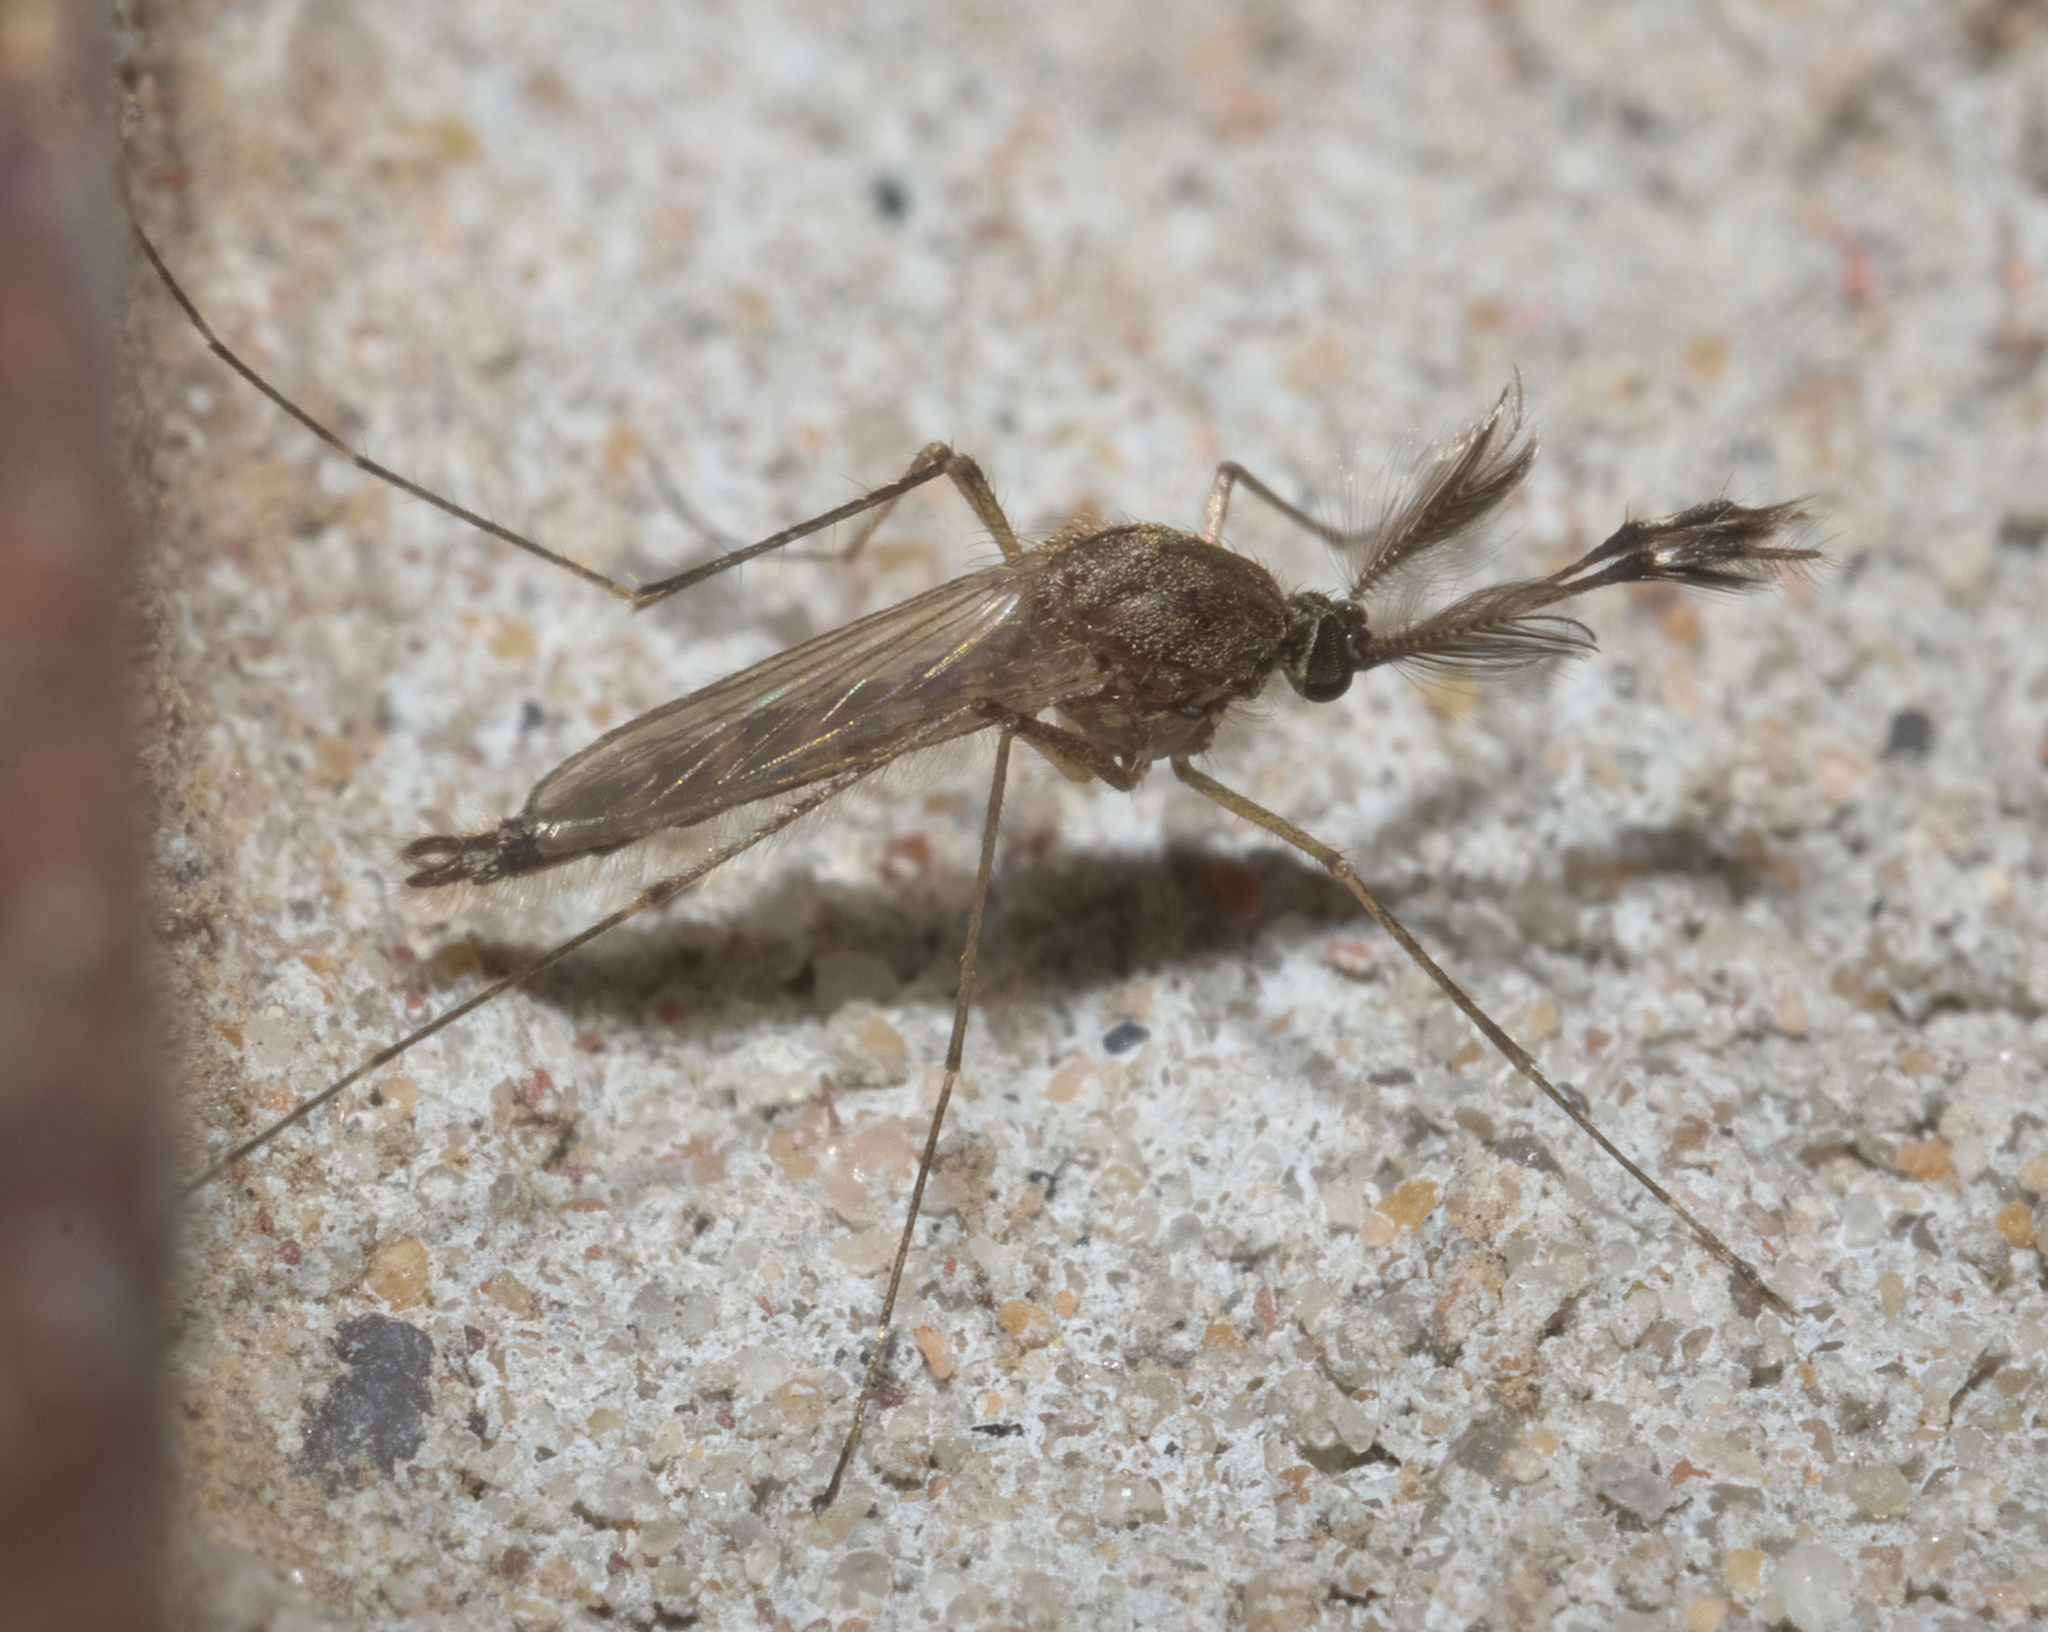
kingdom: Animalia
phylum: Arthropoda
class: Insecta
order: Diptera
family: Culicidae
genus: Aedes
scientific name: Aedes vexans
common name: Inland floodwater mosquito
